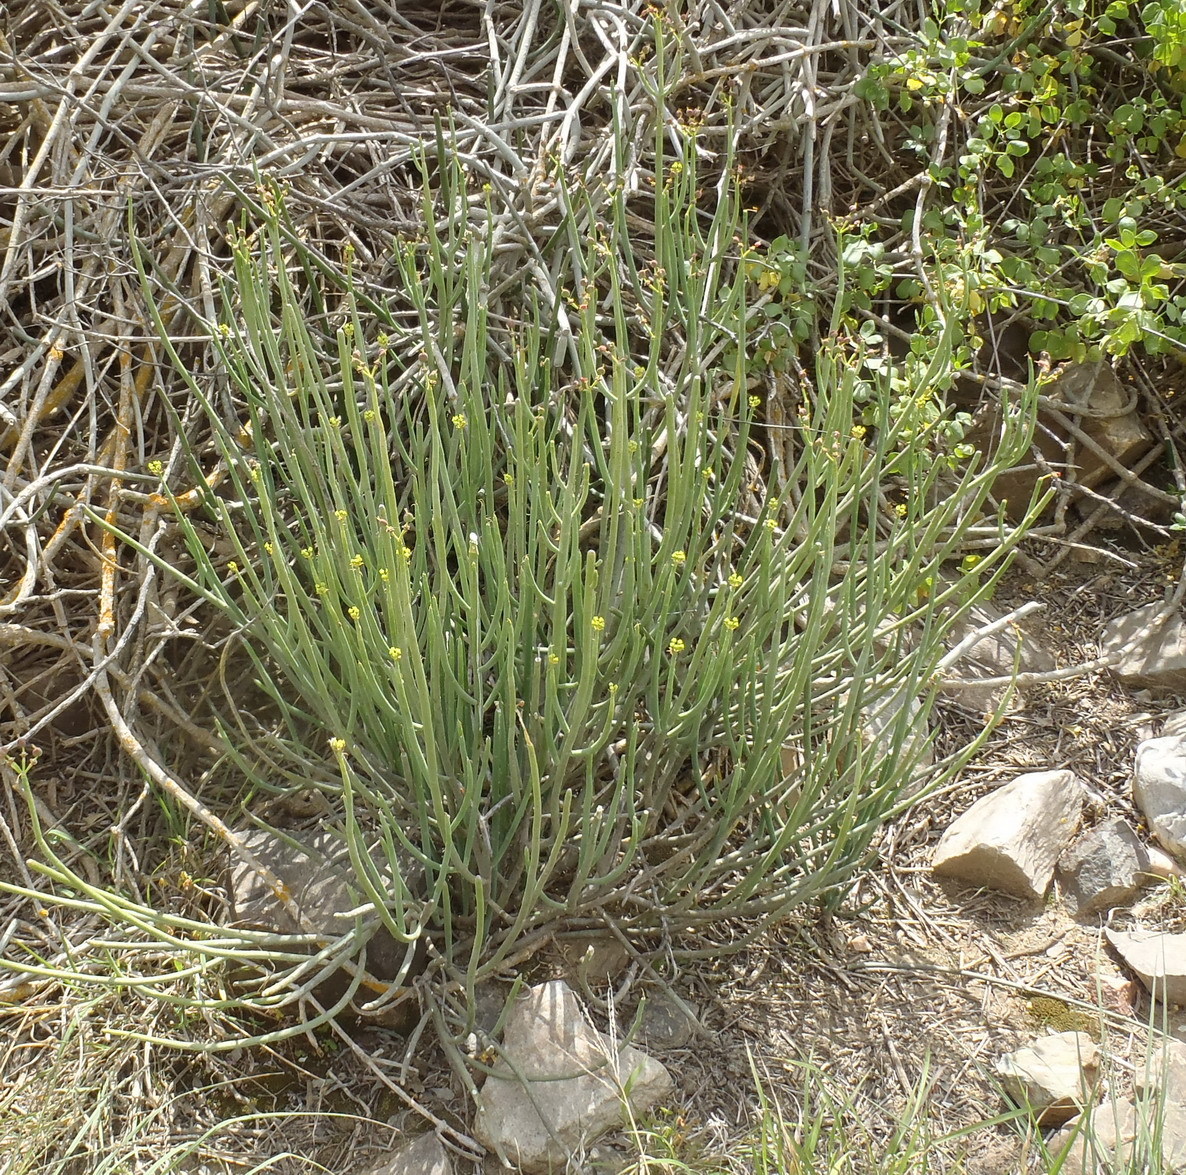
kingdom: Plantae
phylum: Tracheophyta
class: Magnoliopsida
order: Malpighiales
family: Euphorbiaceae
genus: Euphorbia
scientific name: Euphorbia mauritanica
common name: Jackal's-food
